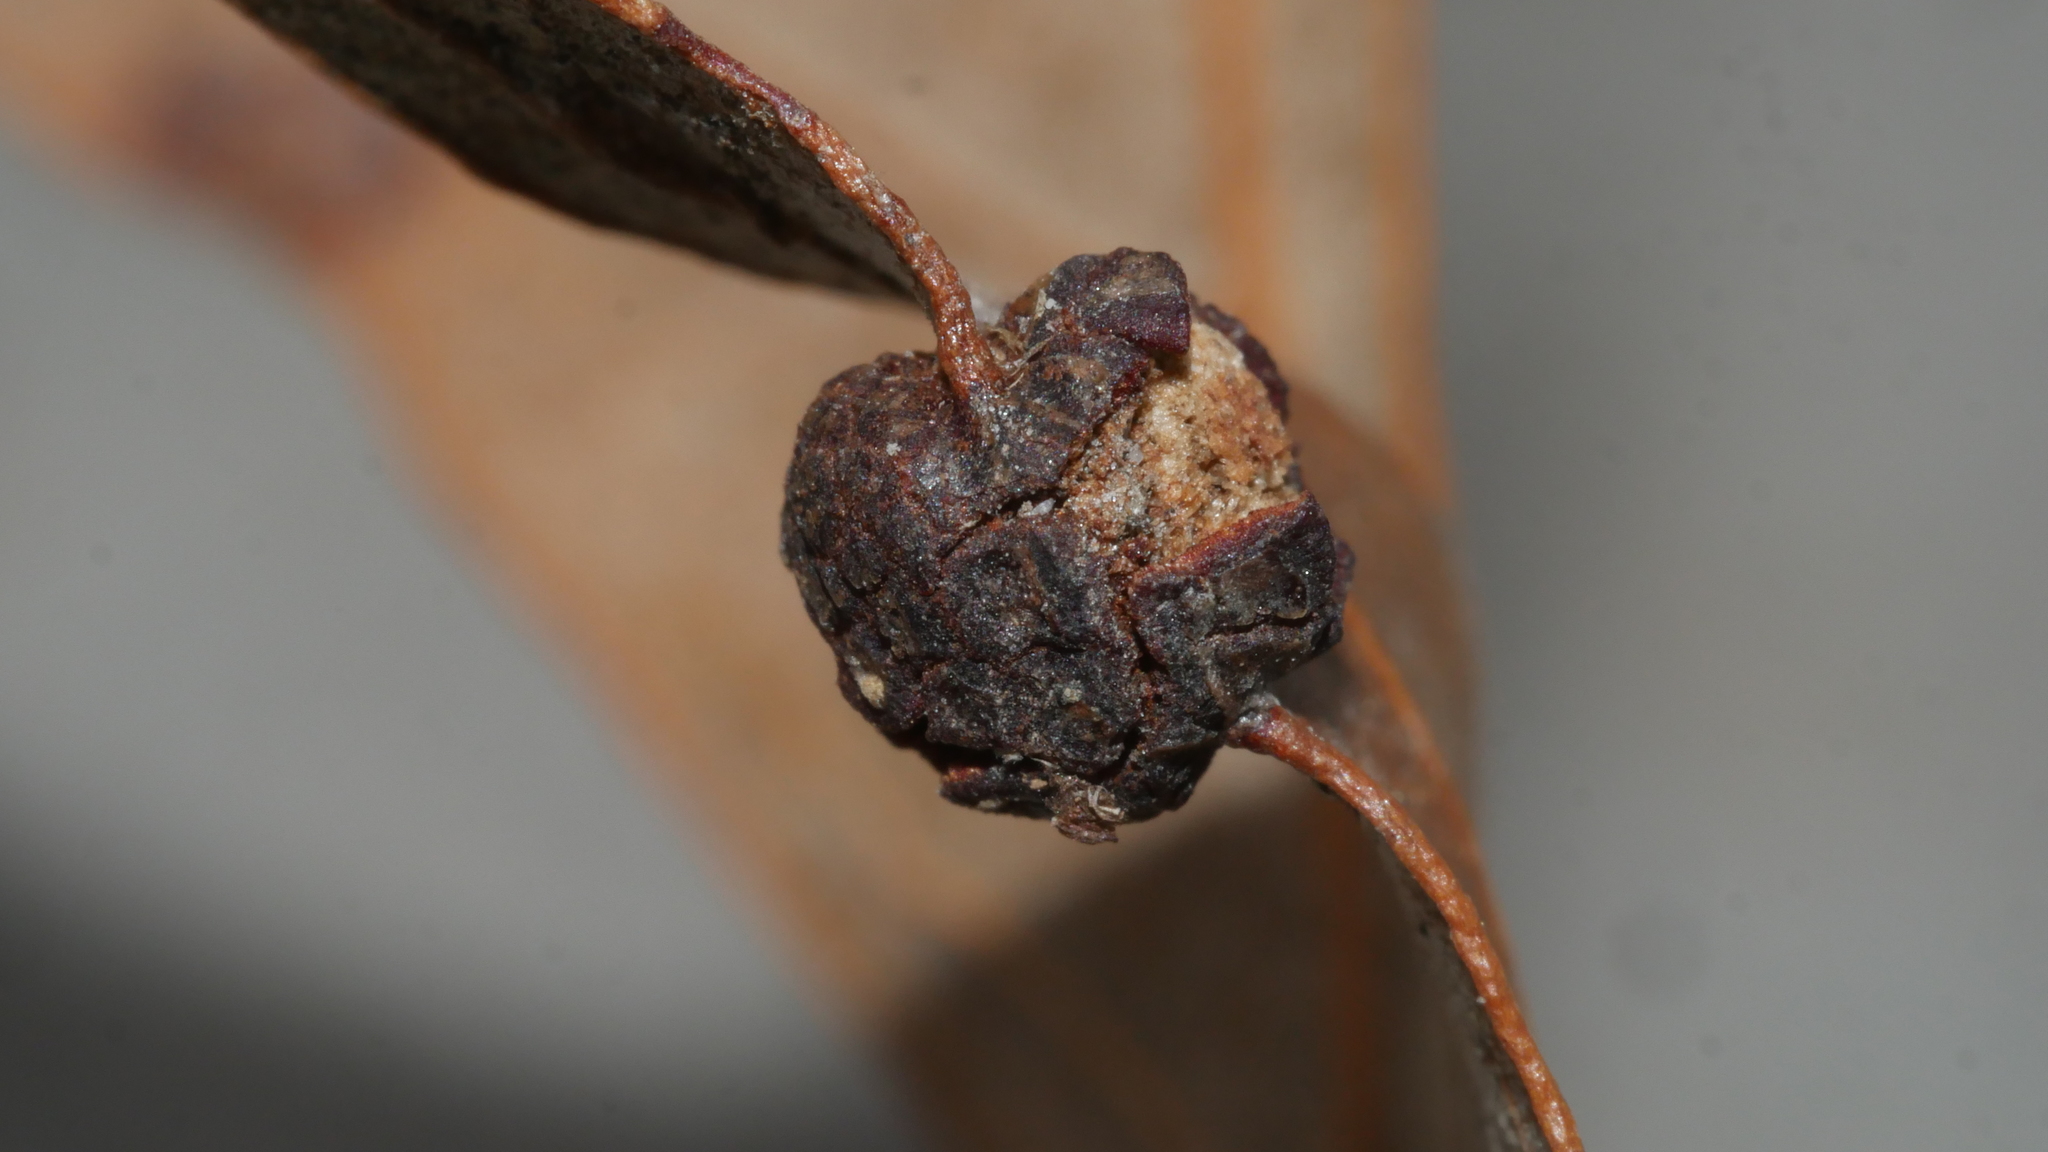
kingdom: Animalia
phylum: Arthropoda
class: Insecta
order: Diptera
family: Cecidomyiidae
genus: Polystepha
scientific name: Polystepha symmetrica
